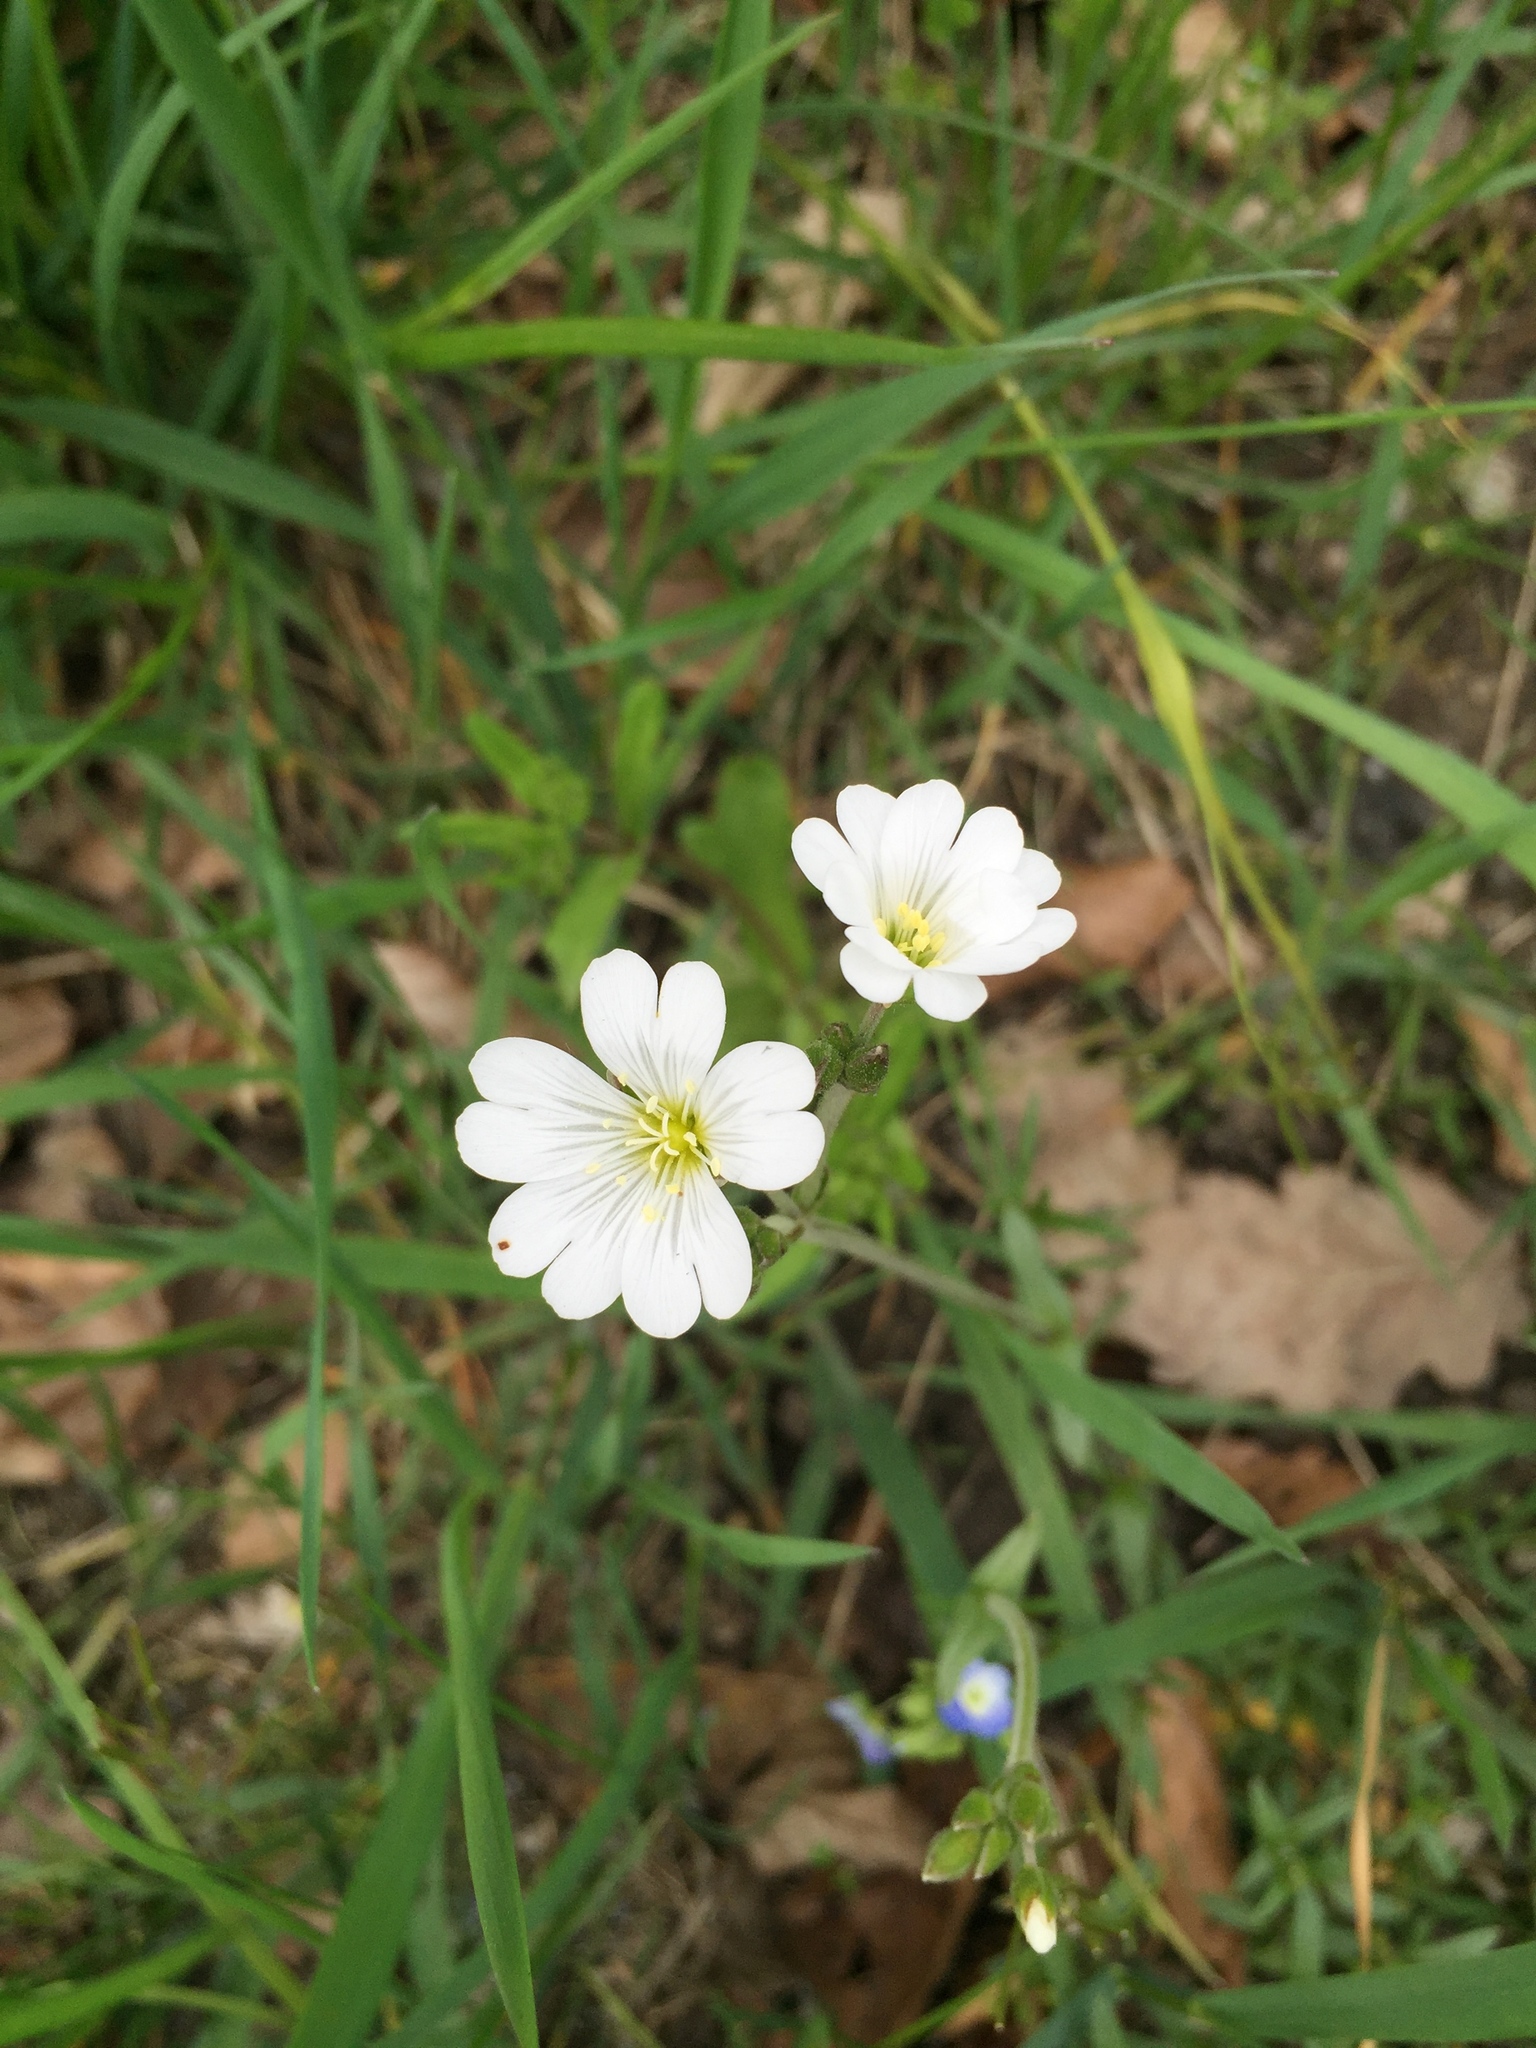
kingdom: Plantae
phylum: Tracheophyta
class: Magnoliopsida
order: Caryophyllales
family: Caryophyllaceae
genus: Cerastium
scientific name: Cerastium arvense
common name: Field mouse-ear
